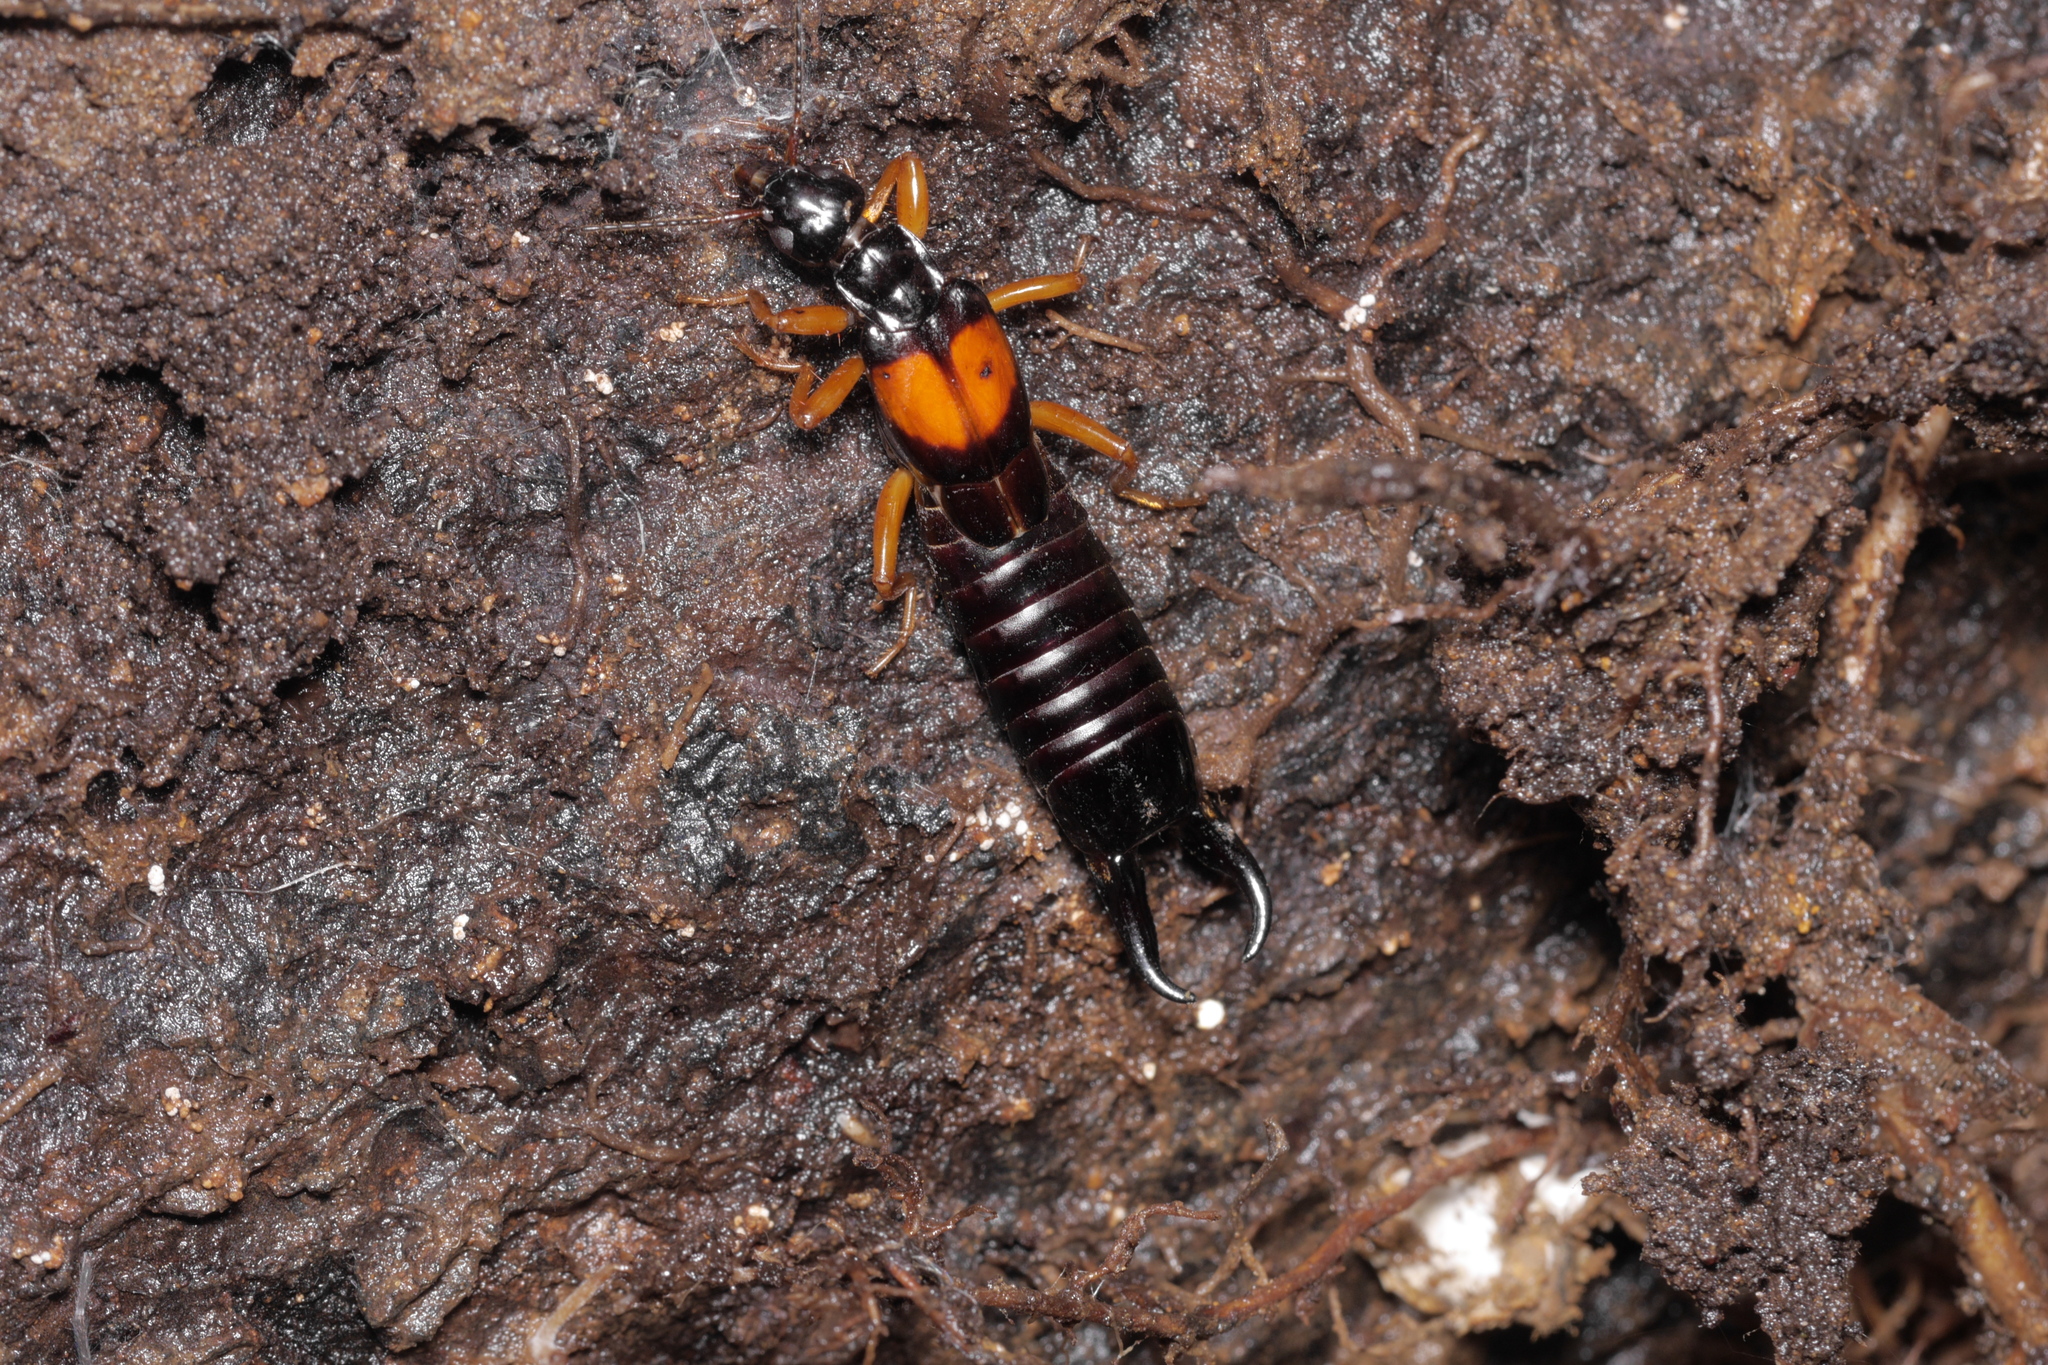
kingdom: Animalia
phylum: Arthropoda
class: Insecta
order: Dermaptera
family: Anisolabididae
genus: Carcinophora
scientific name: Carcinophora americana
